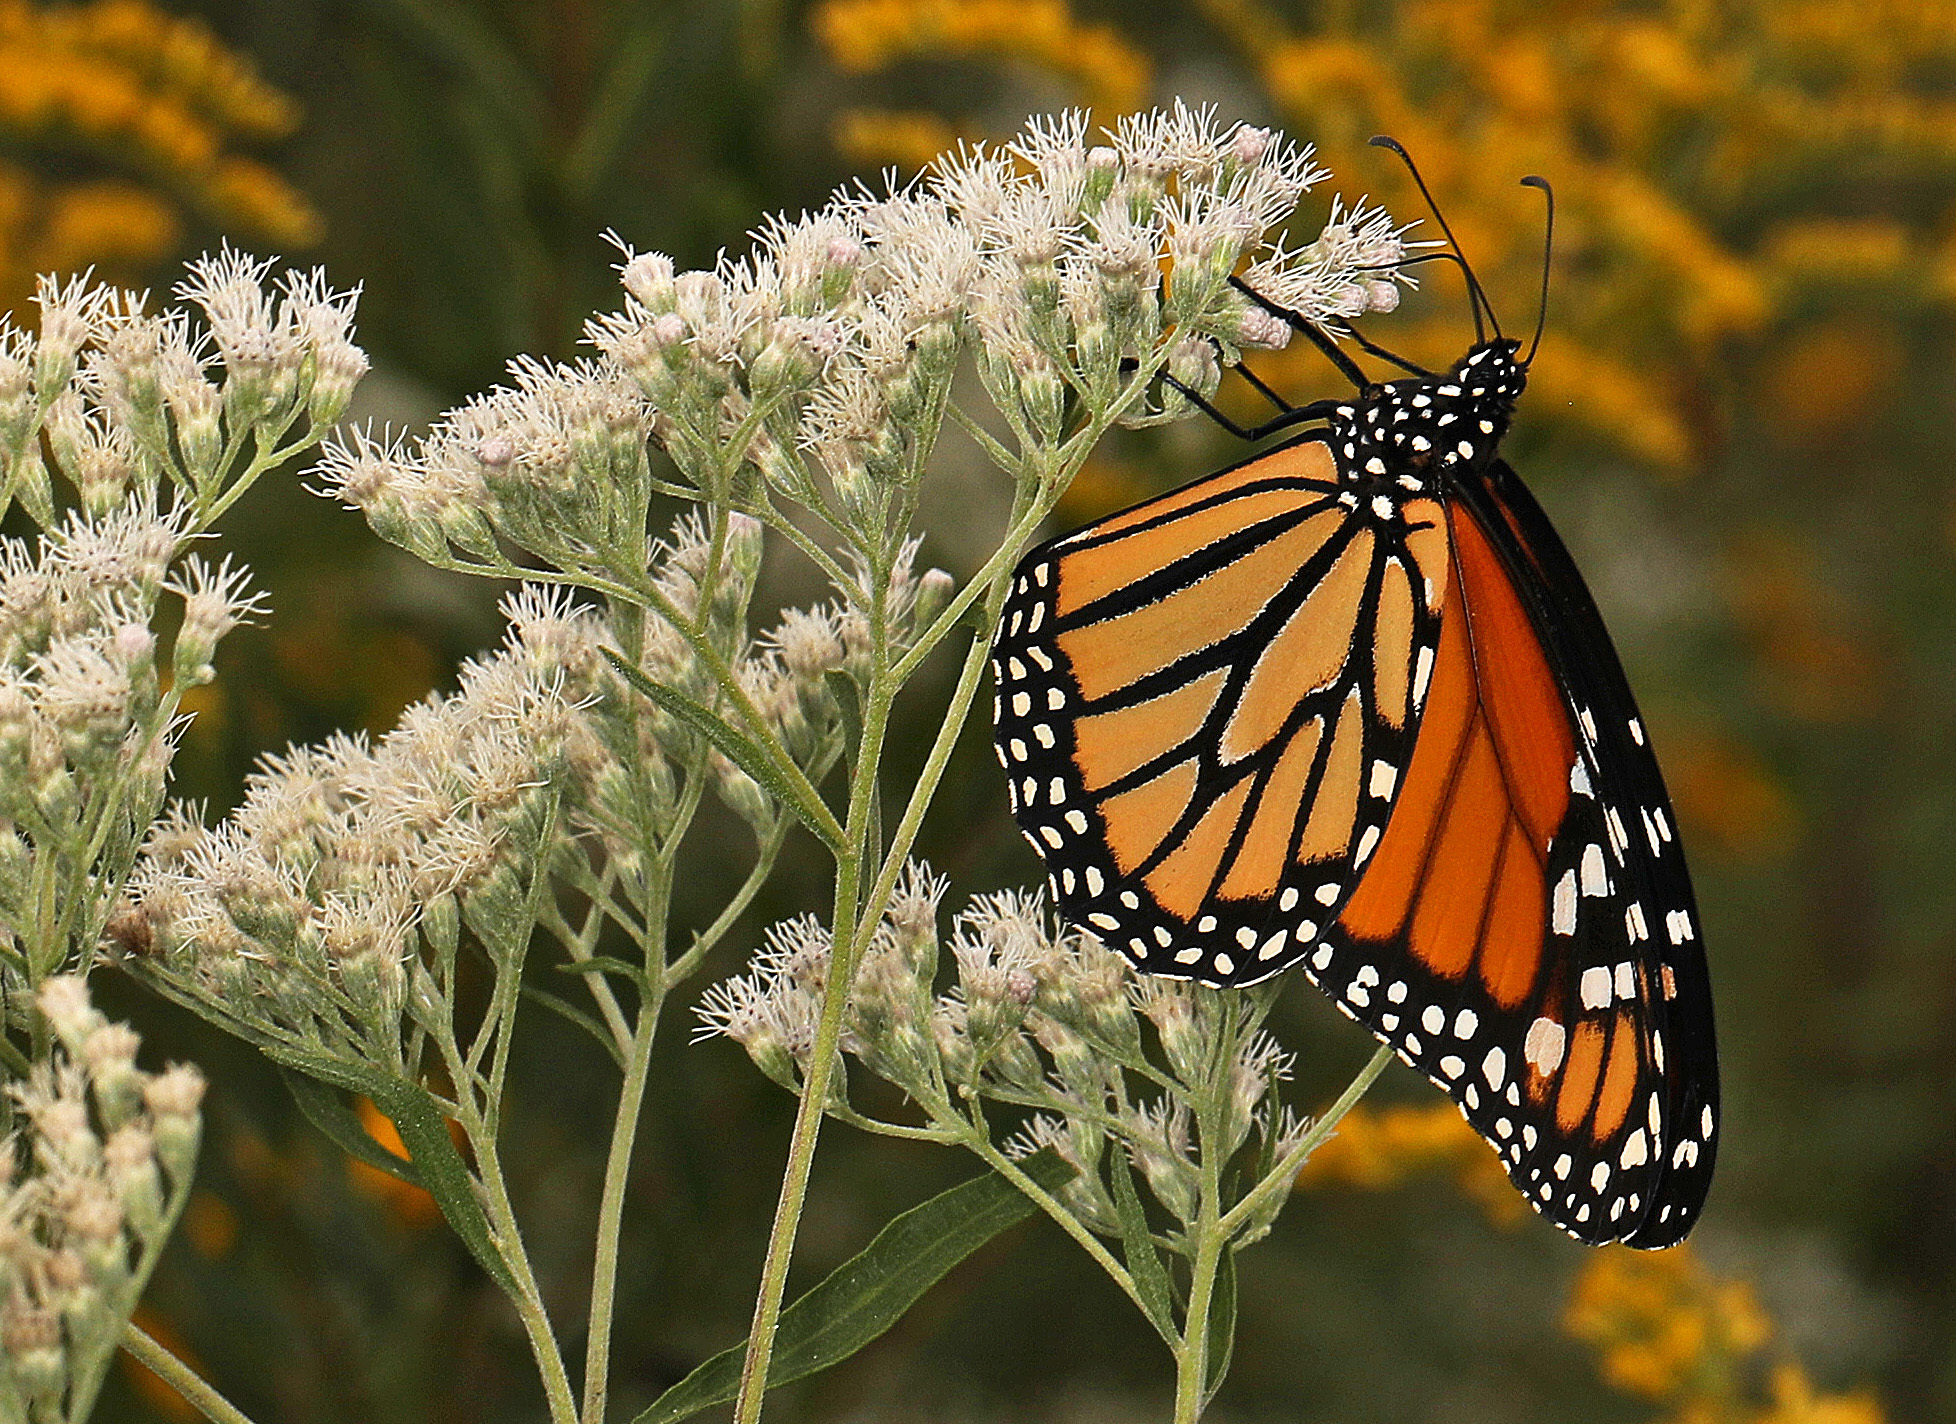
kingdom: Animalia
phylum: Arthropoda
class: Insecta
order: Lepidoptera
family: Nymphalidae
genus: Danaus
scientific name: Danaus plexippus
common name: Monarch
